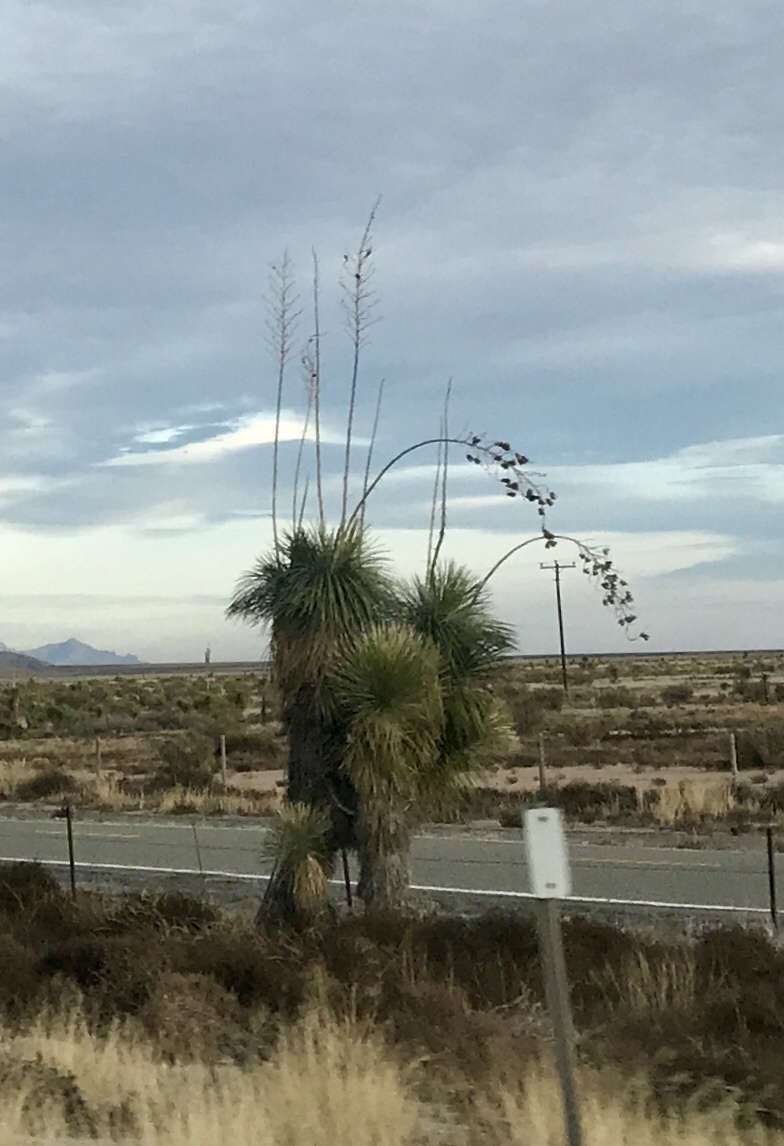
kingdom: Plantae
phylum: Tracheophyta
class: Liliopsida
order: Asparagales
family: Asparagaceae
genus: Yucca
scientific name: Yucca elata
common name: Palmella
